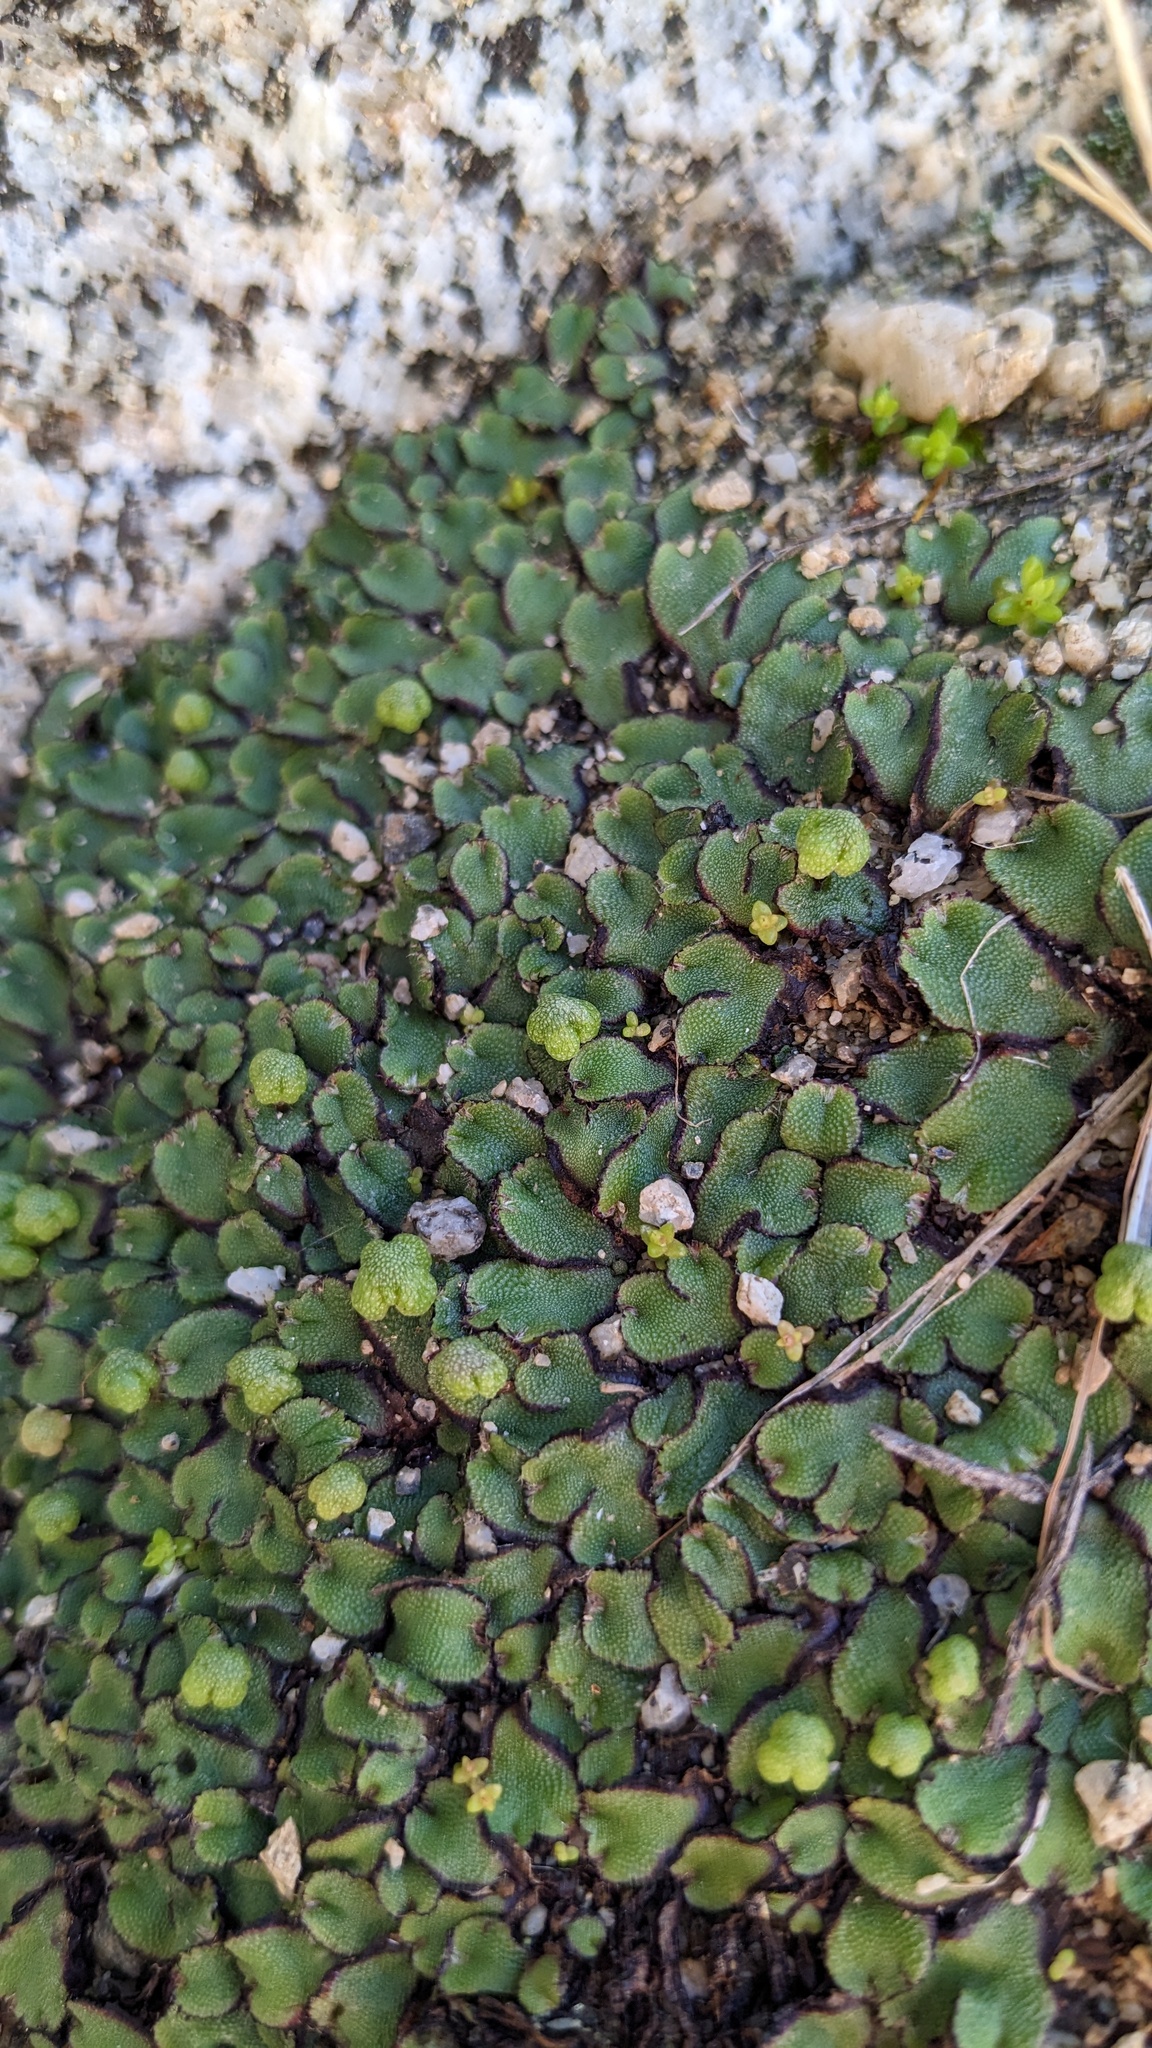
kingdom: Plantae
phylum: Marchantiophyta
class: Marchantiopsida
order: Marchantiales
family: Aytoniaceae
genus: Asterella
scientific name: Asterella californica
